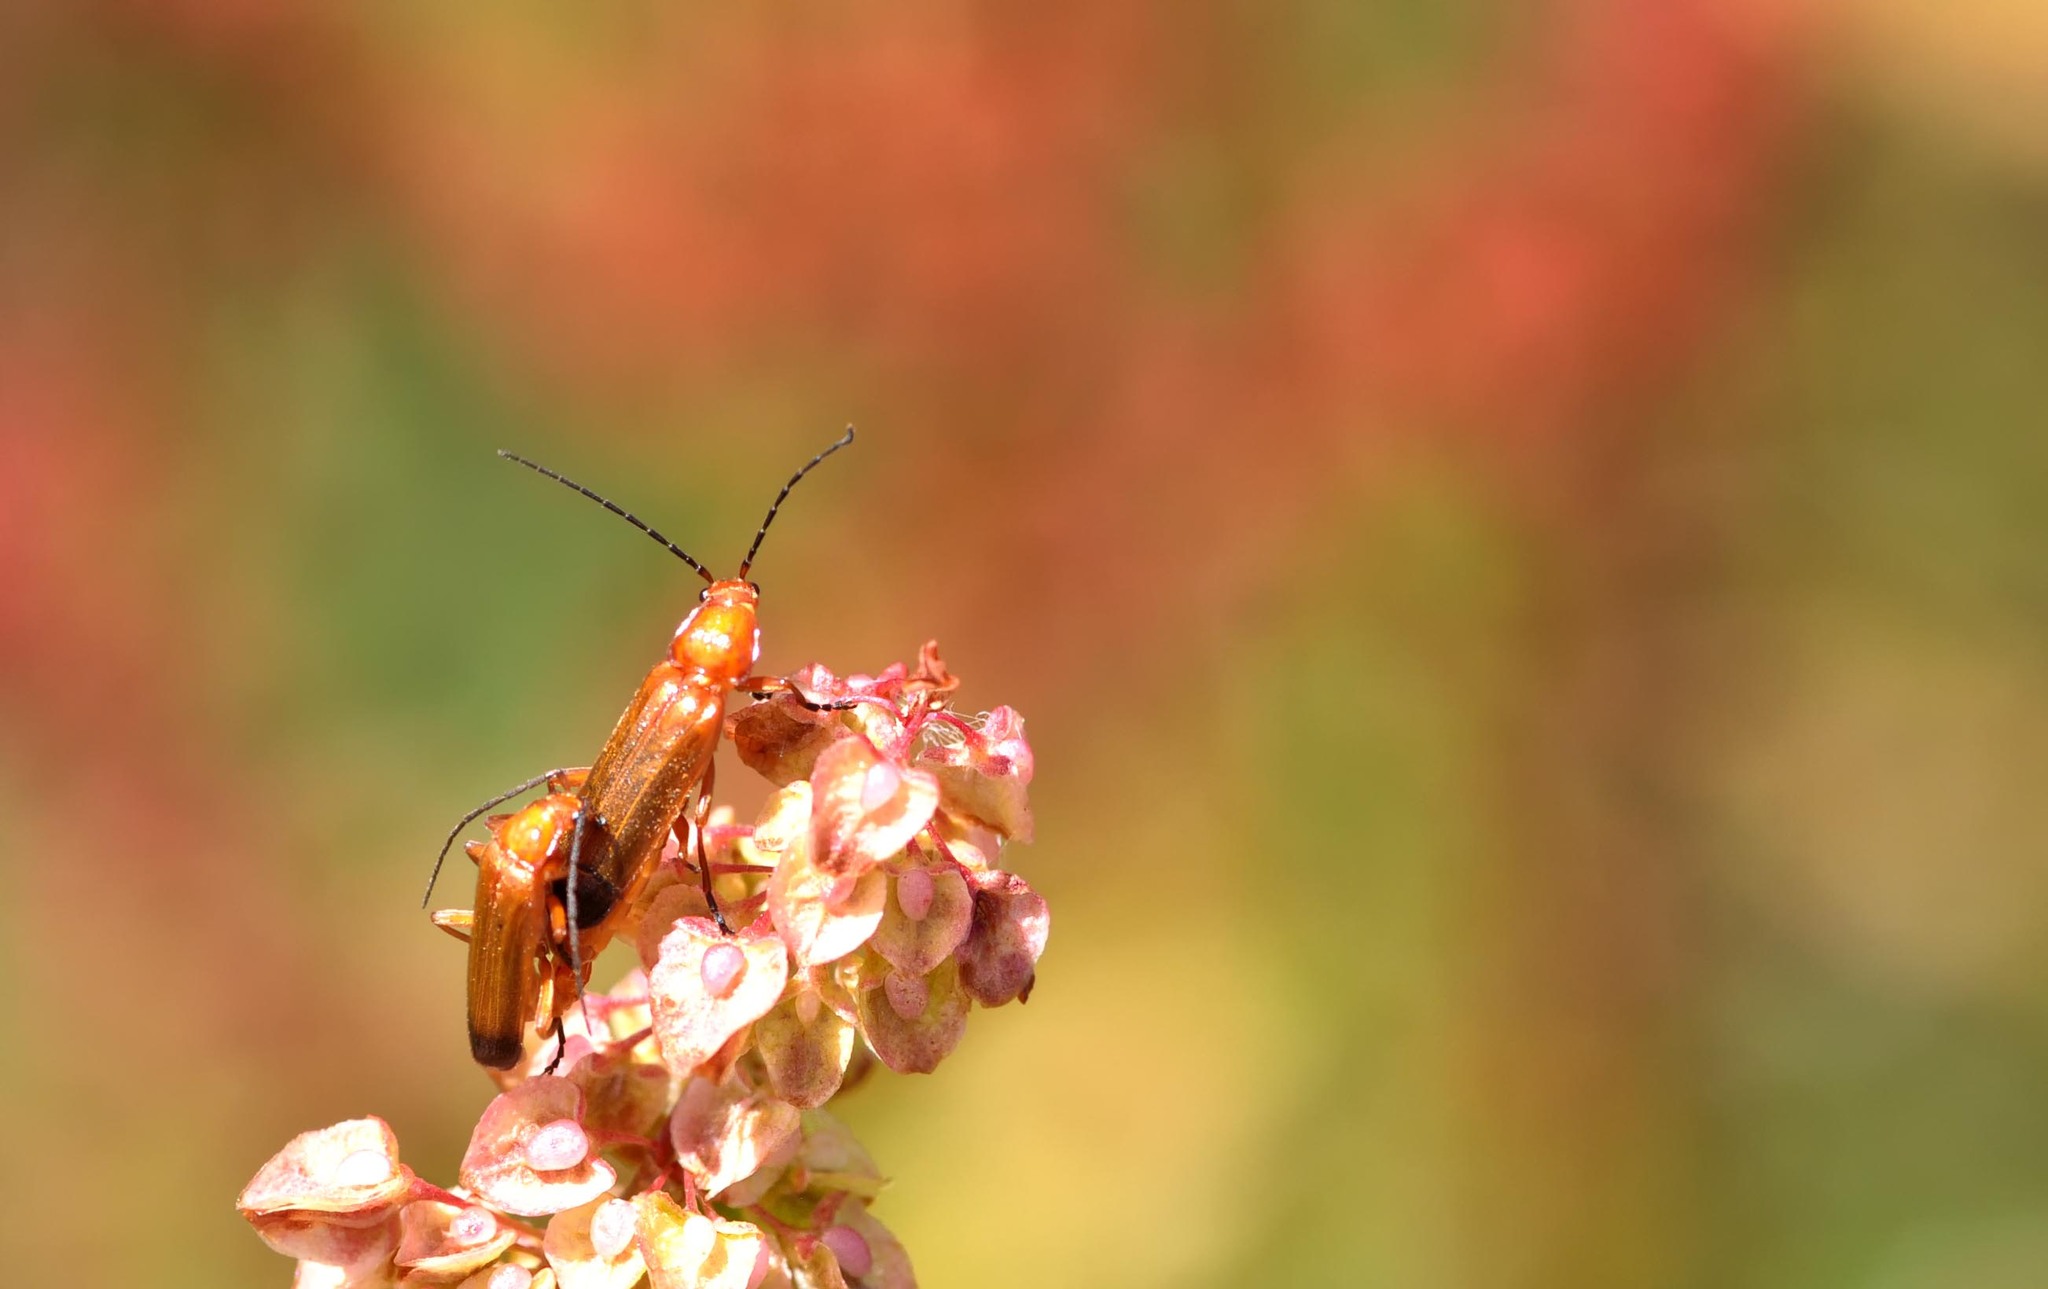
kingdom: Animalia
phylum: Arthropoda
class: Insecta
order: Coleoptera
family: Cantharidae
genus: Rhagonycha
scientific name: Rhagonycha fulva
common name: Common red soldier beetle
